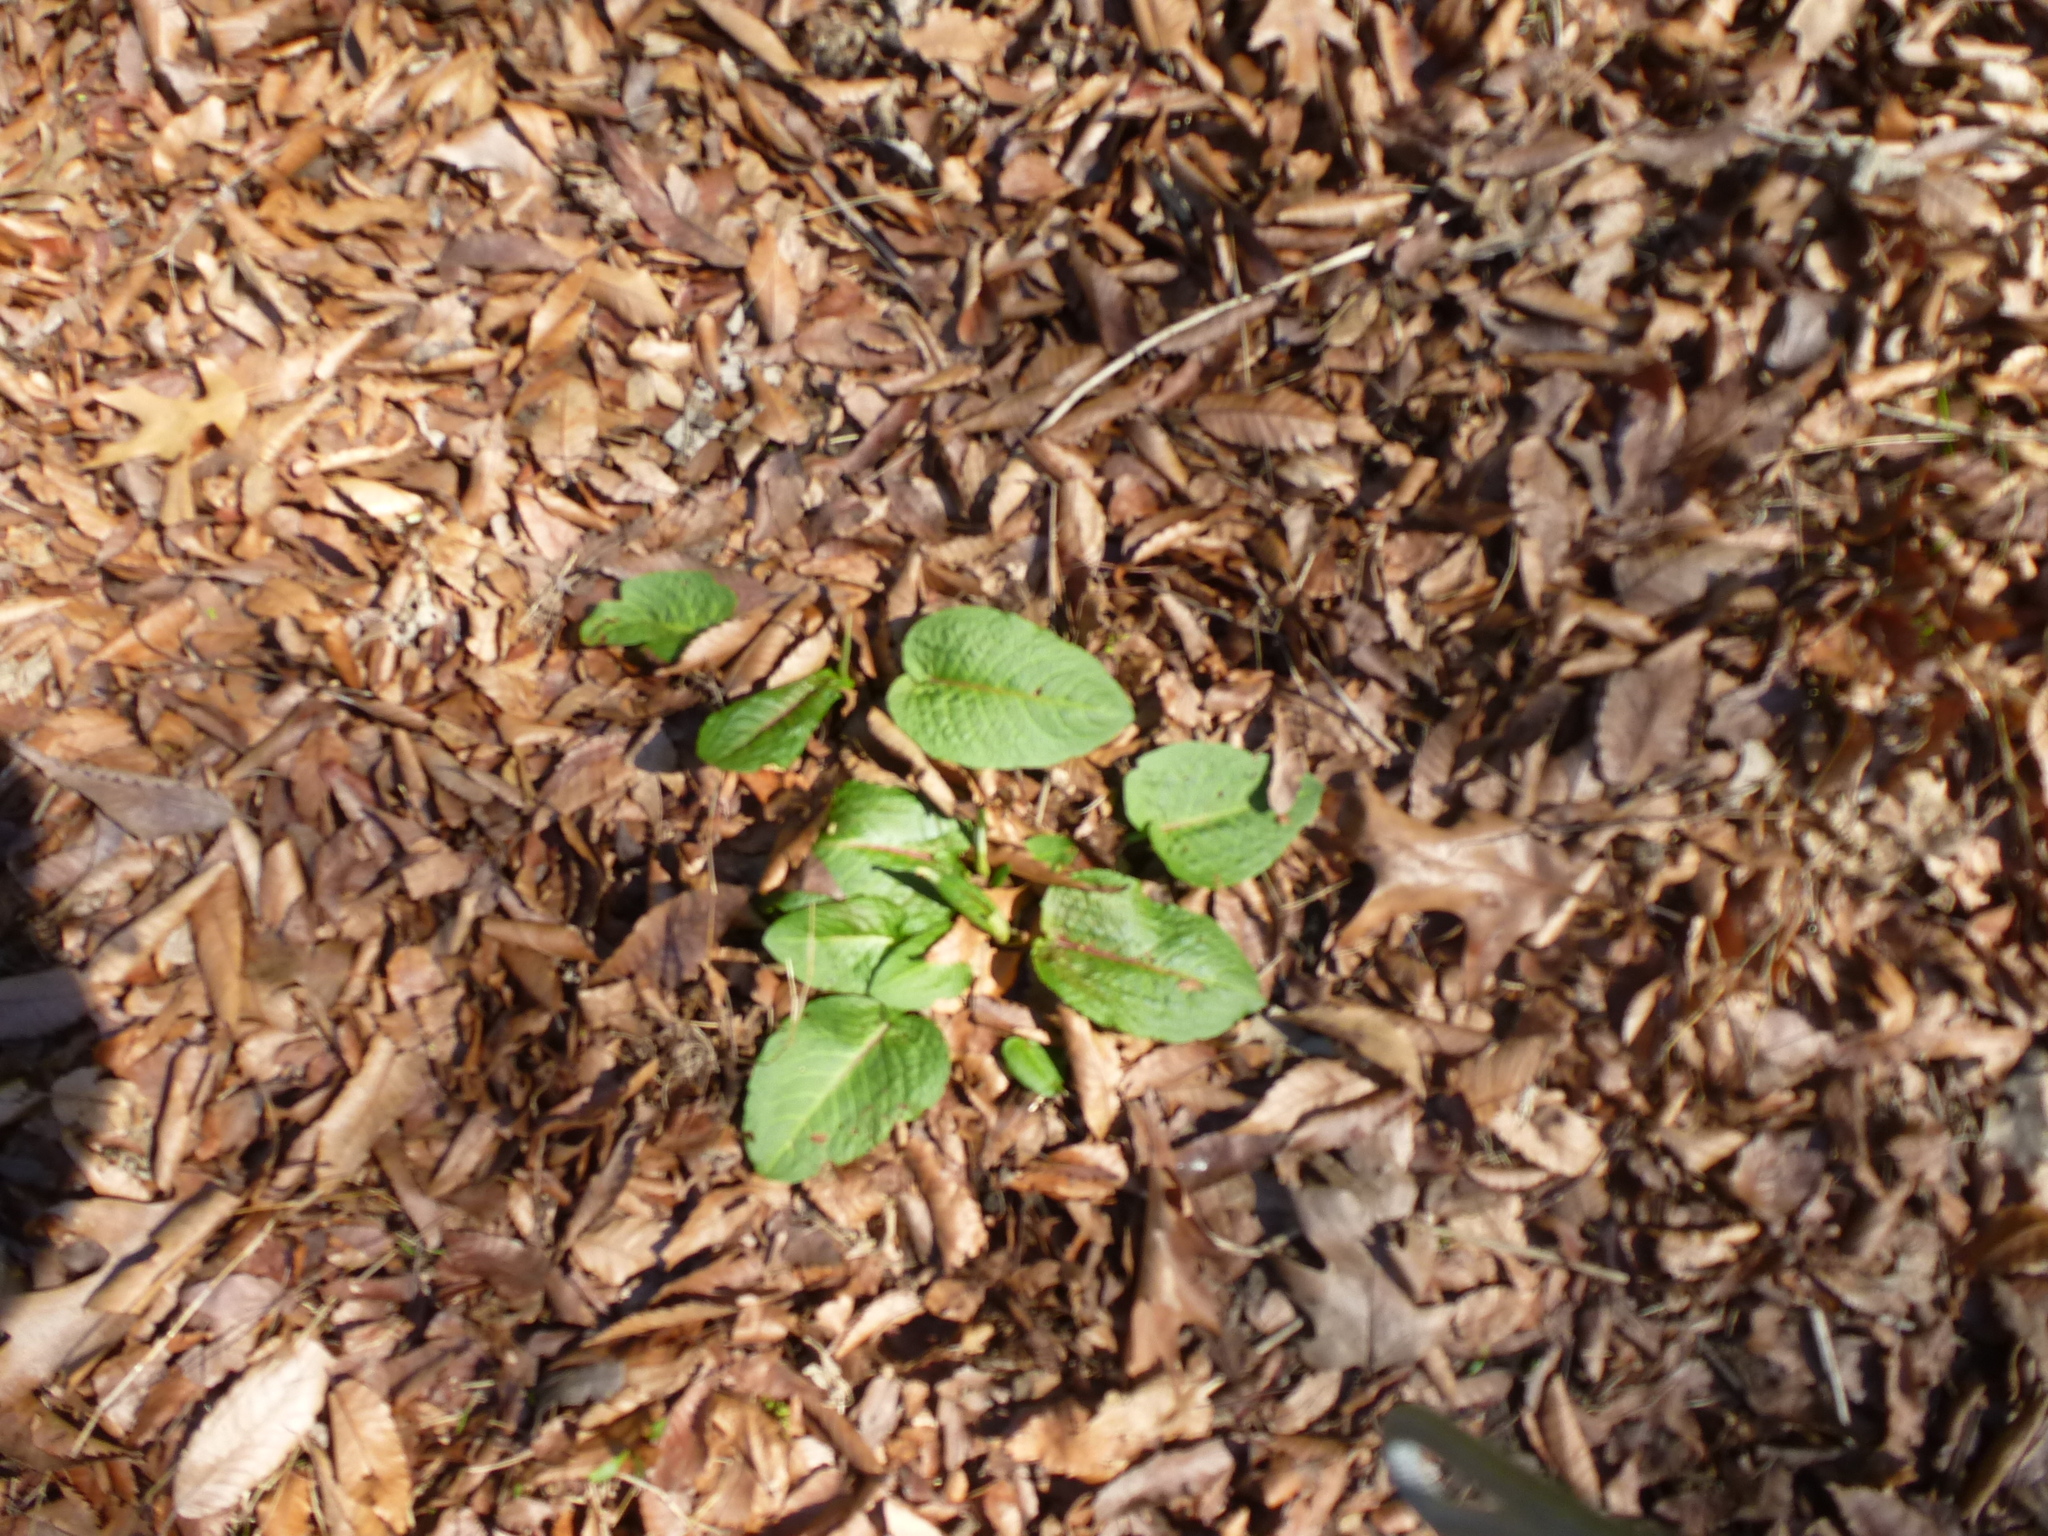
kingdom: Plantae
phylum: Tracheophyta
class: Magnoliopsida
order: Caryophyllales
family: Polygonaceae
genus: Rumex
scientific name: Rumex obtusifolius
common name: Bitter dock
